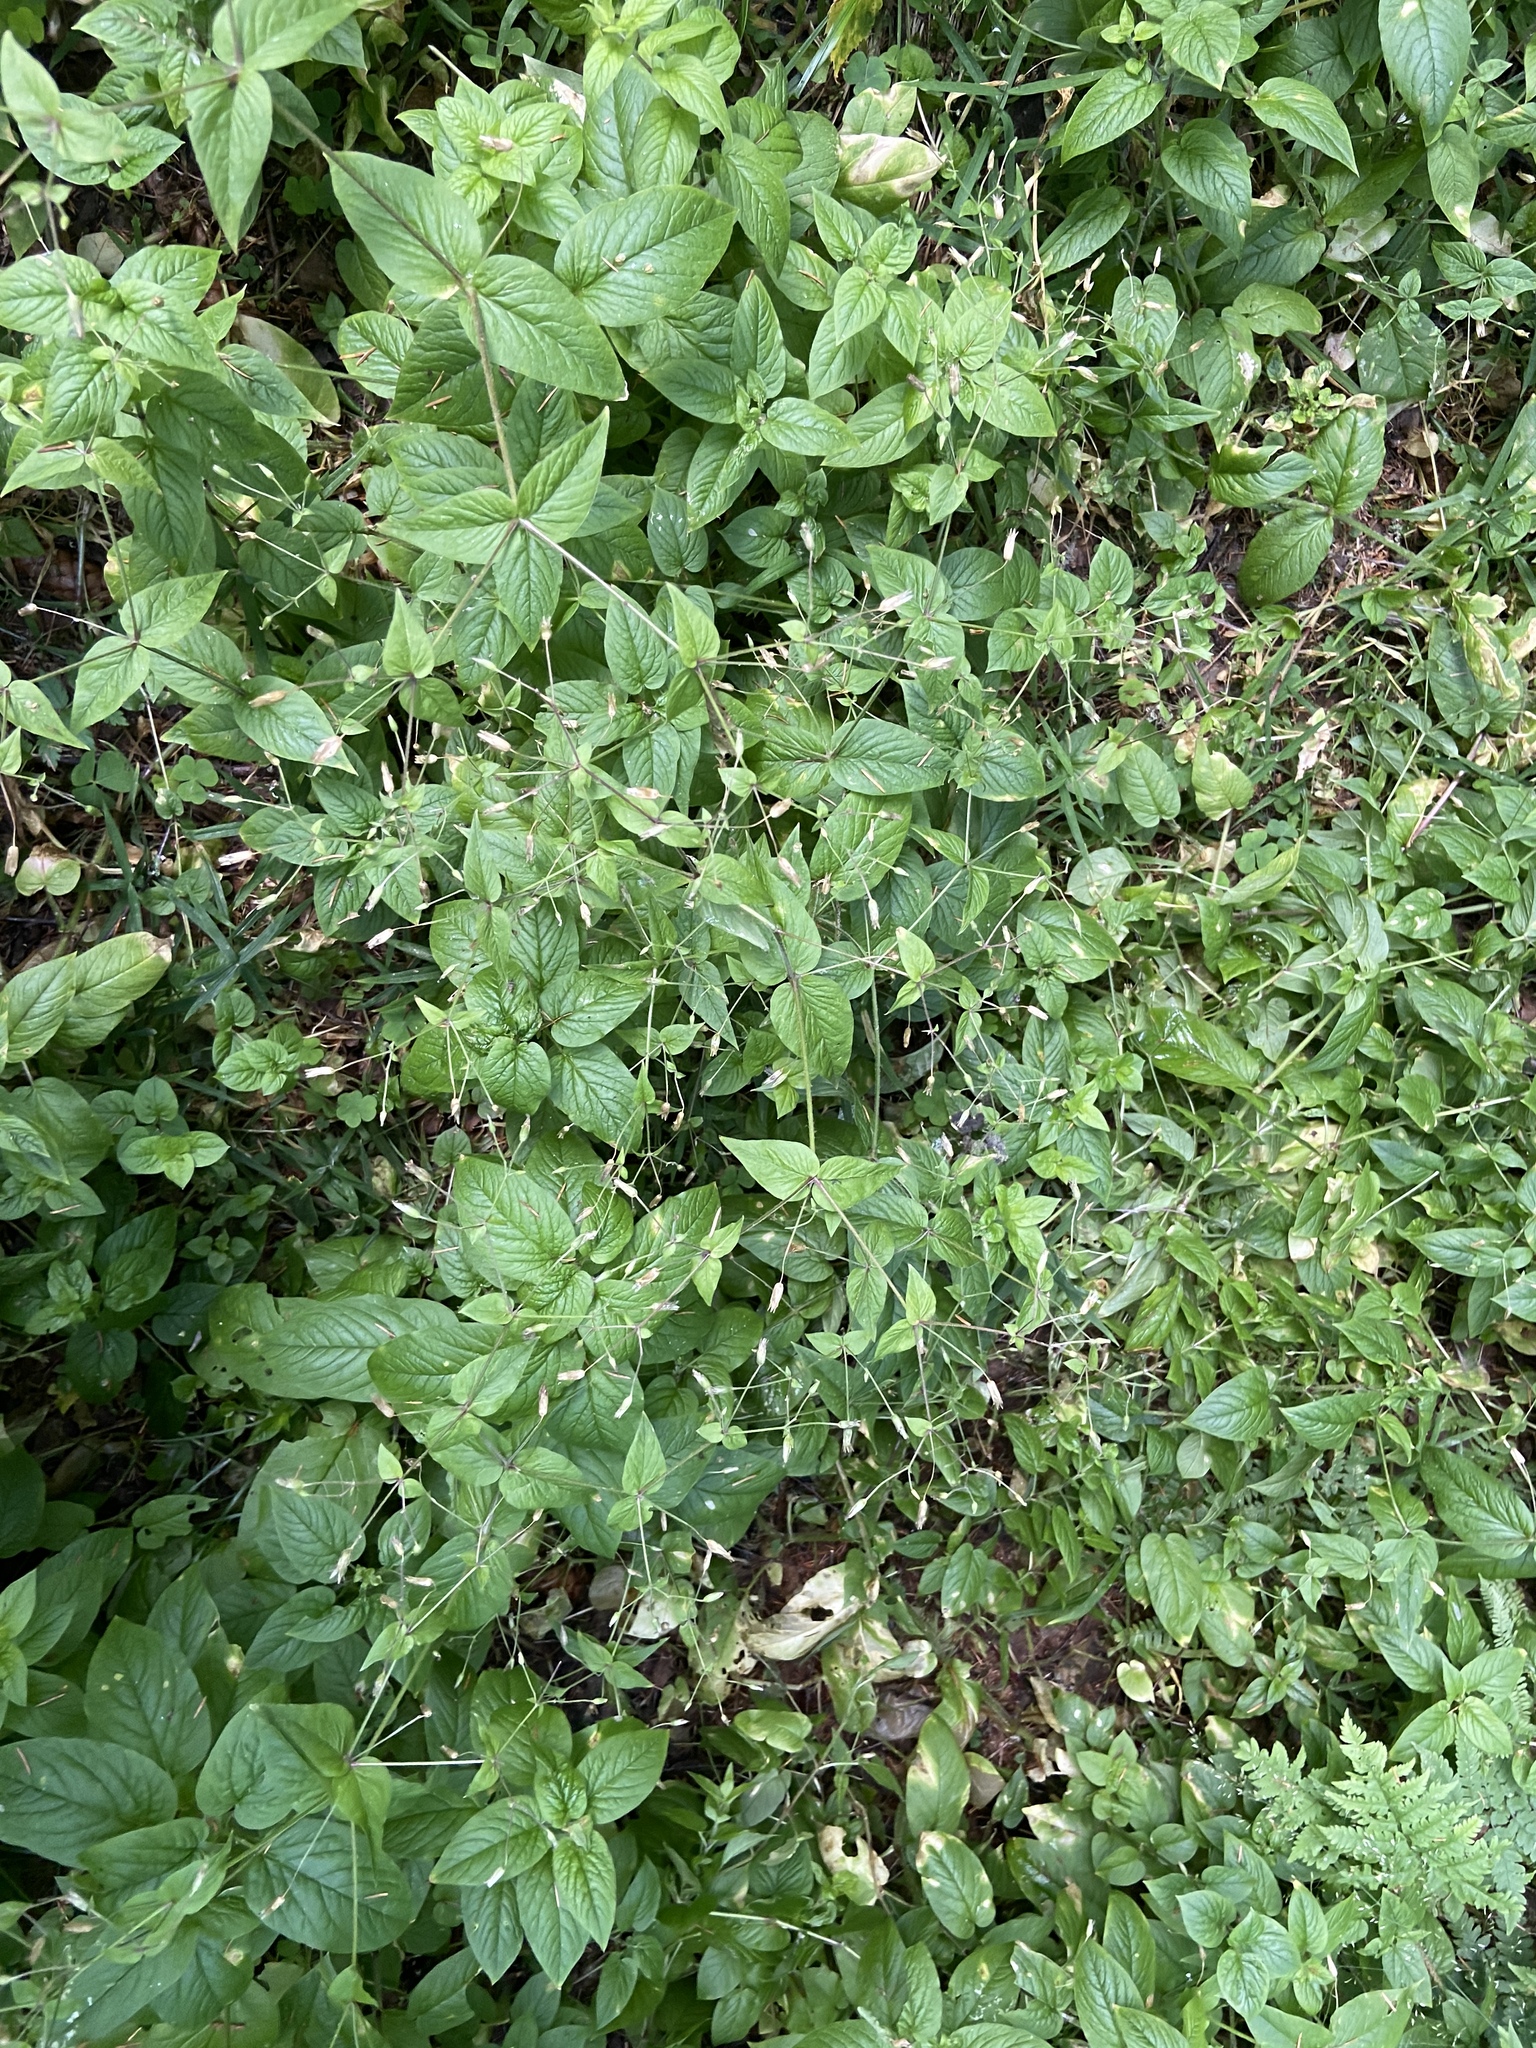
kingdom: Plantae
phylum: Tracheophyta
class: Magnoliopsida
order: Caryophyllales
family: Caryophyllaceae
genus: Stellaria
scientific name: Stellaria nemorum
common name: Wood stitchwort
